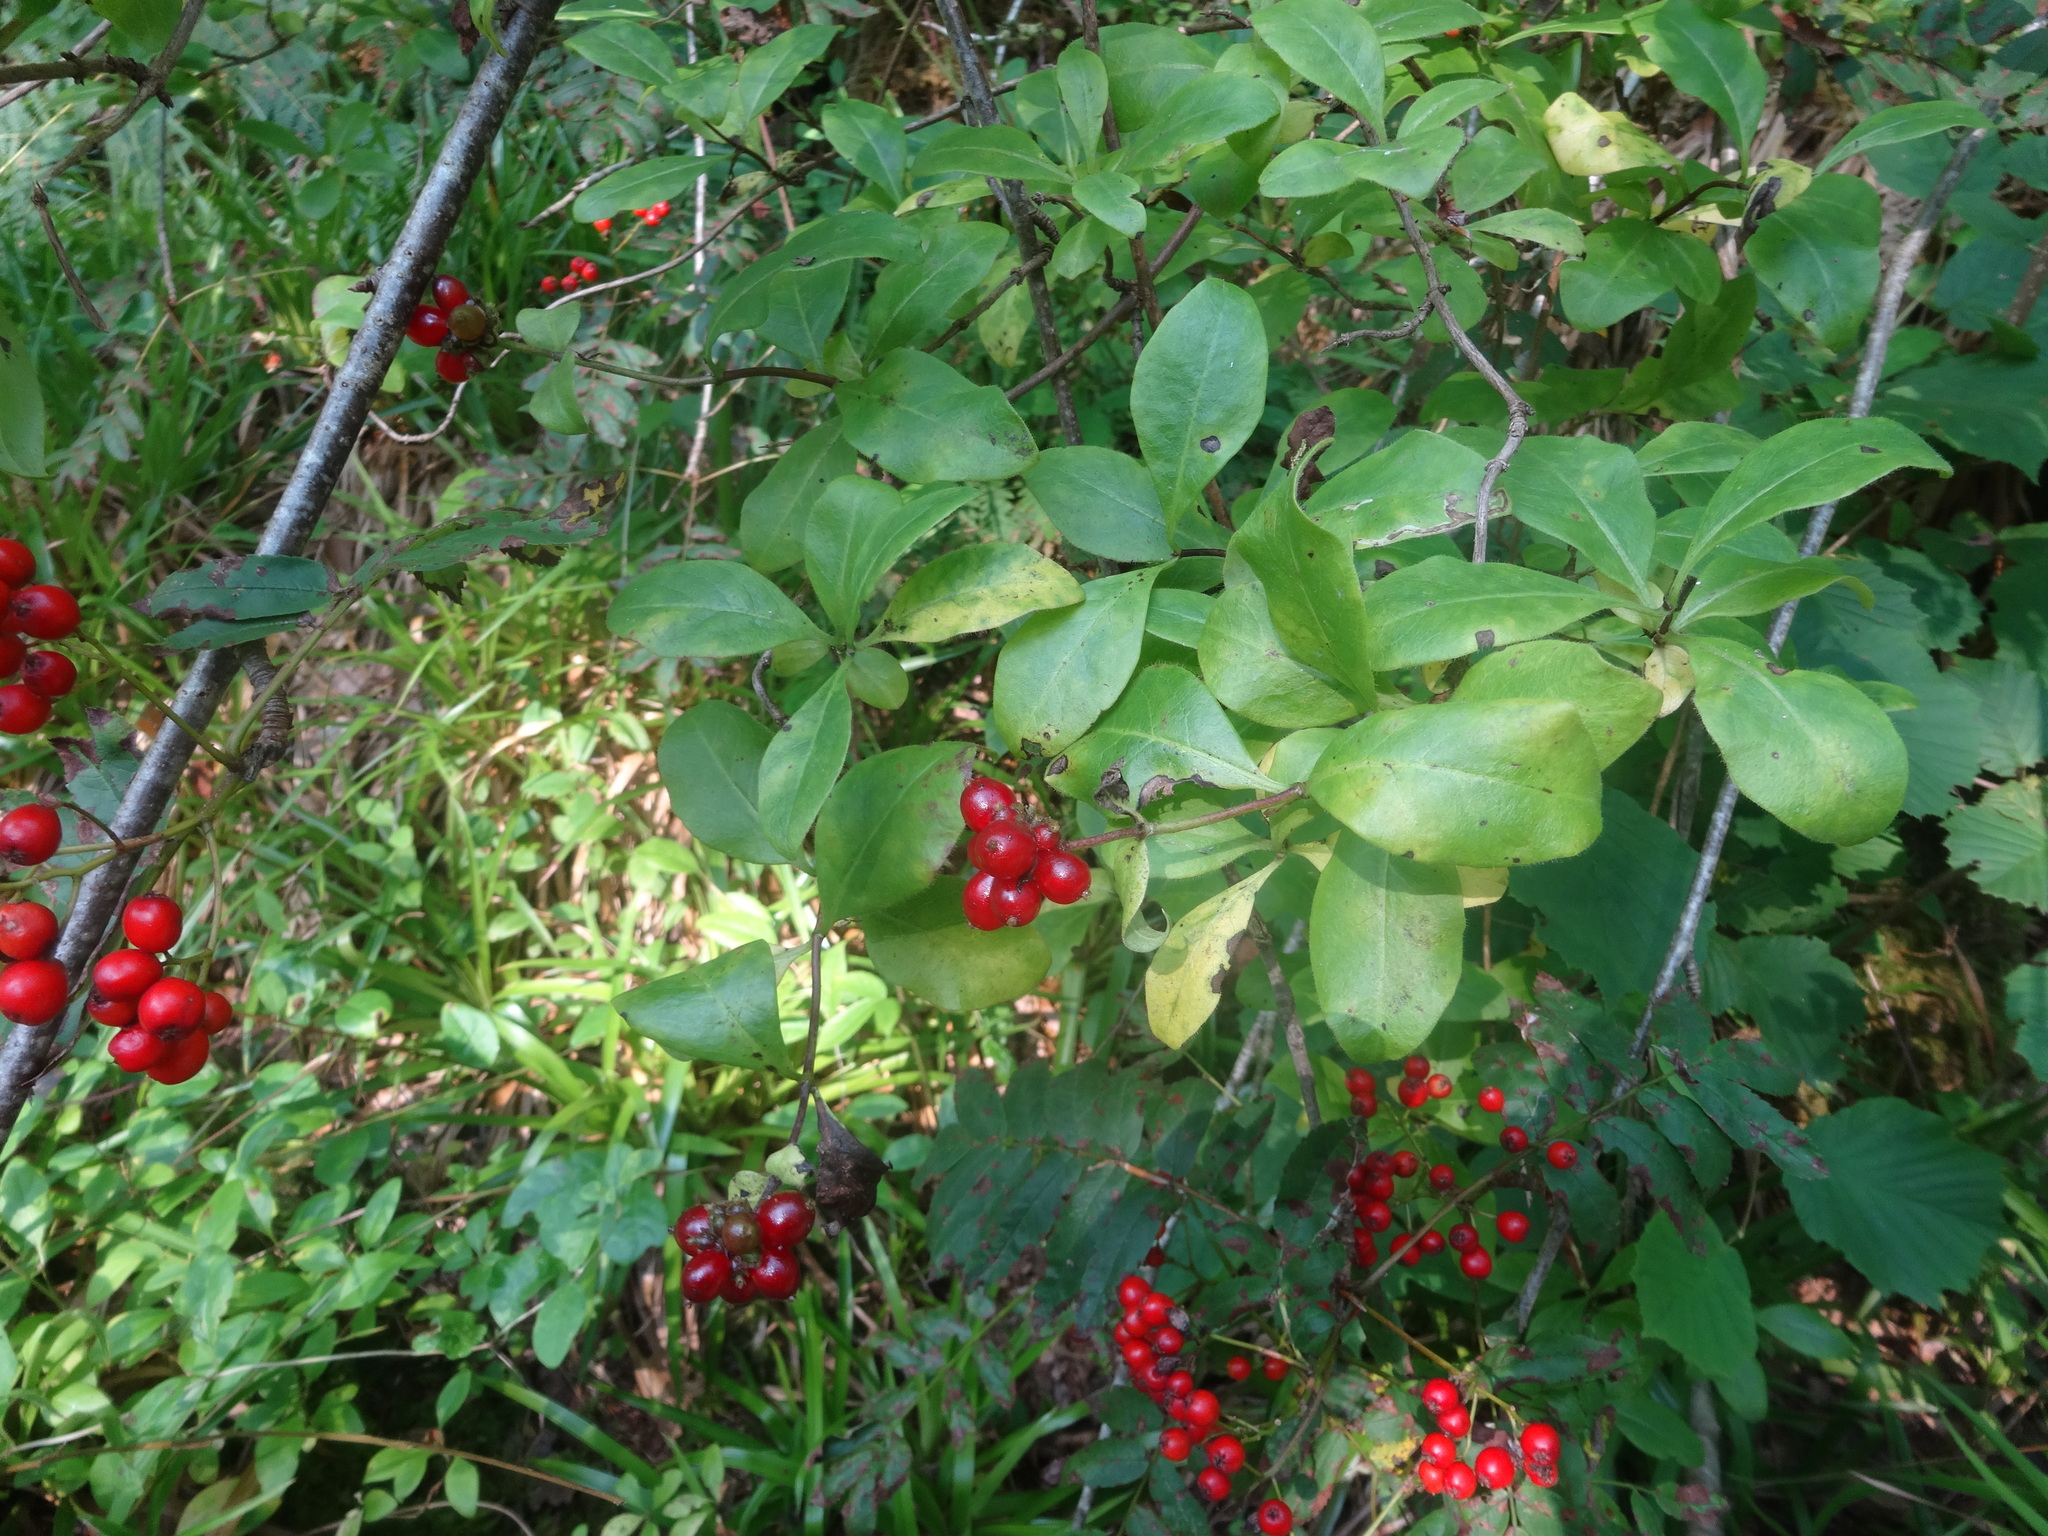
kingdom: Plantae
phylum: Tracheophyta
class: Magnoliopsida
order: Dipsacales
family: Caprifoliaceae
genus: Lonicera
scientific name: Lonicera periclymenum
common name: European honeysuckle
